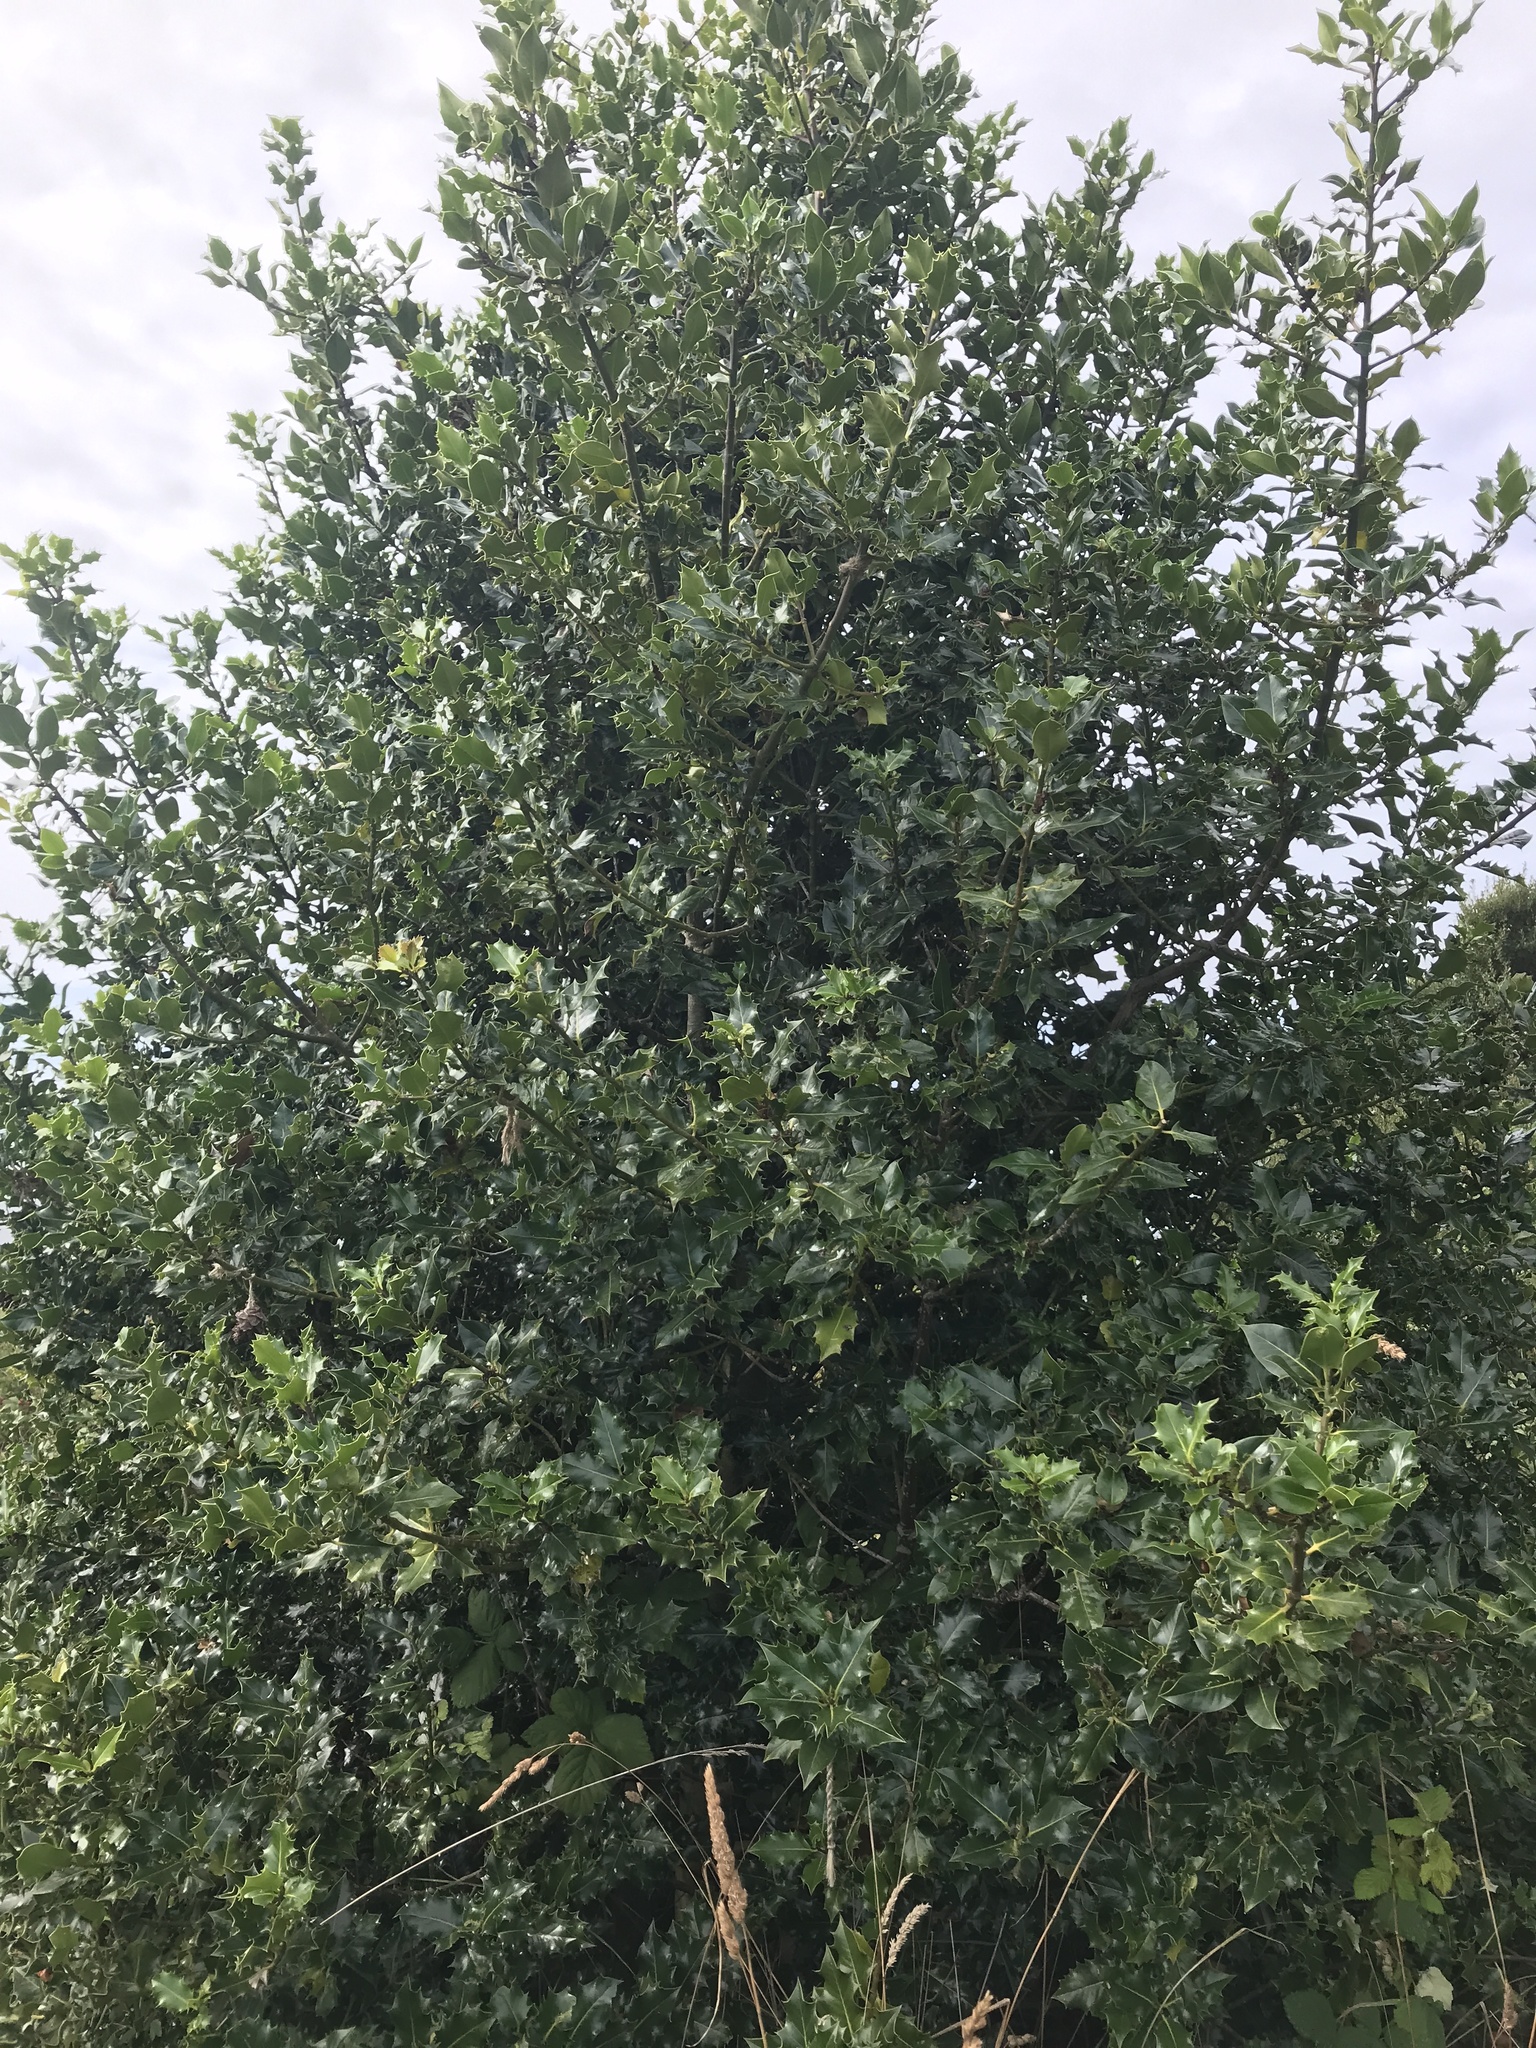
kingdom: Plantae
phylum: Tracheophyta
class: Magnoliopsida
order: Aquifoliales
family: Aquifoliaceae
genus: Ilex
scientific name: Ilex aquifolium
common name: English holly
